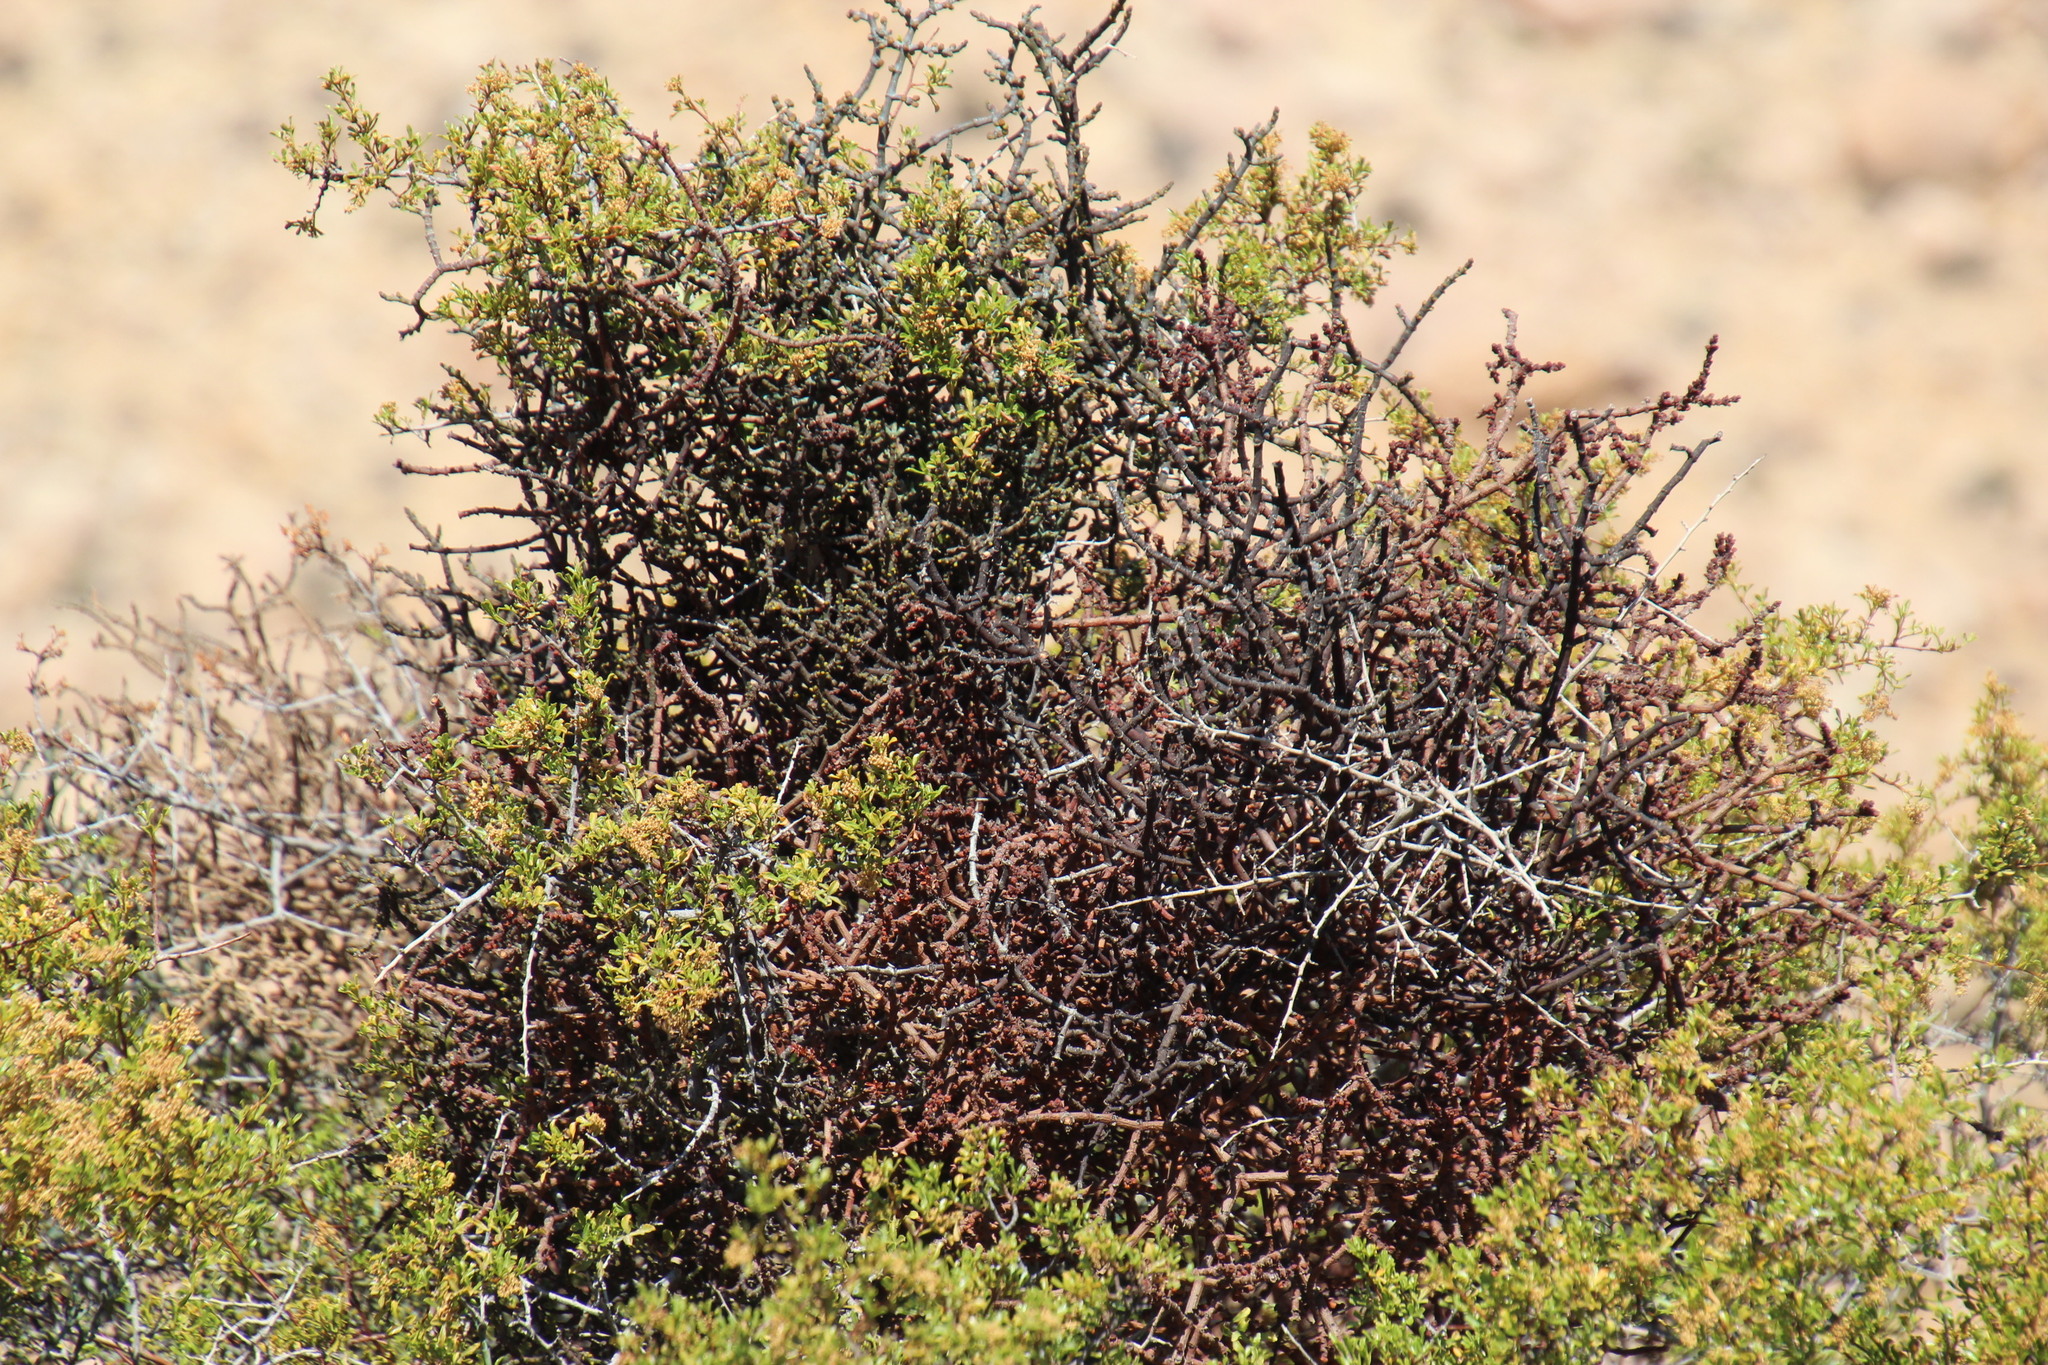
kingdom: Plantae
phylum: Tracheophyta
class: Magnoliopsida
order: Sapindales
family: Anacardiaceae
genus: Searsia
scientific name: Searsia undulata
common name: Namaqua kunibush
